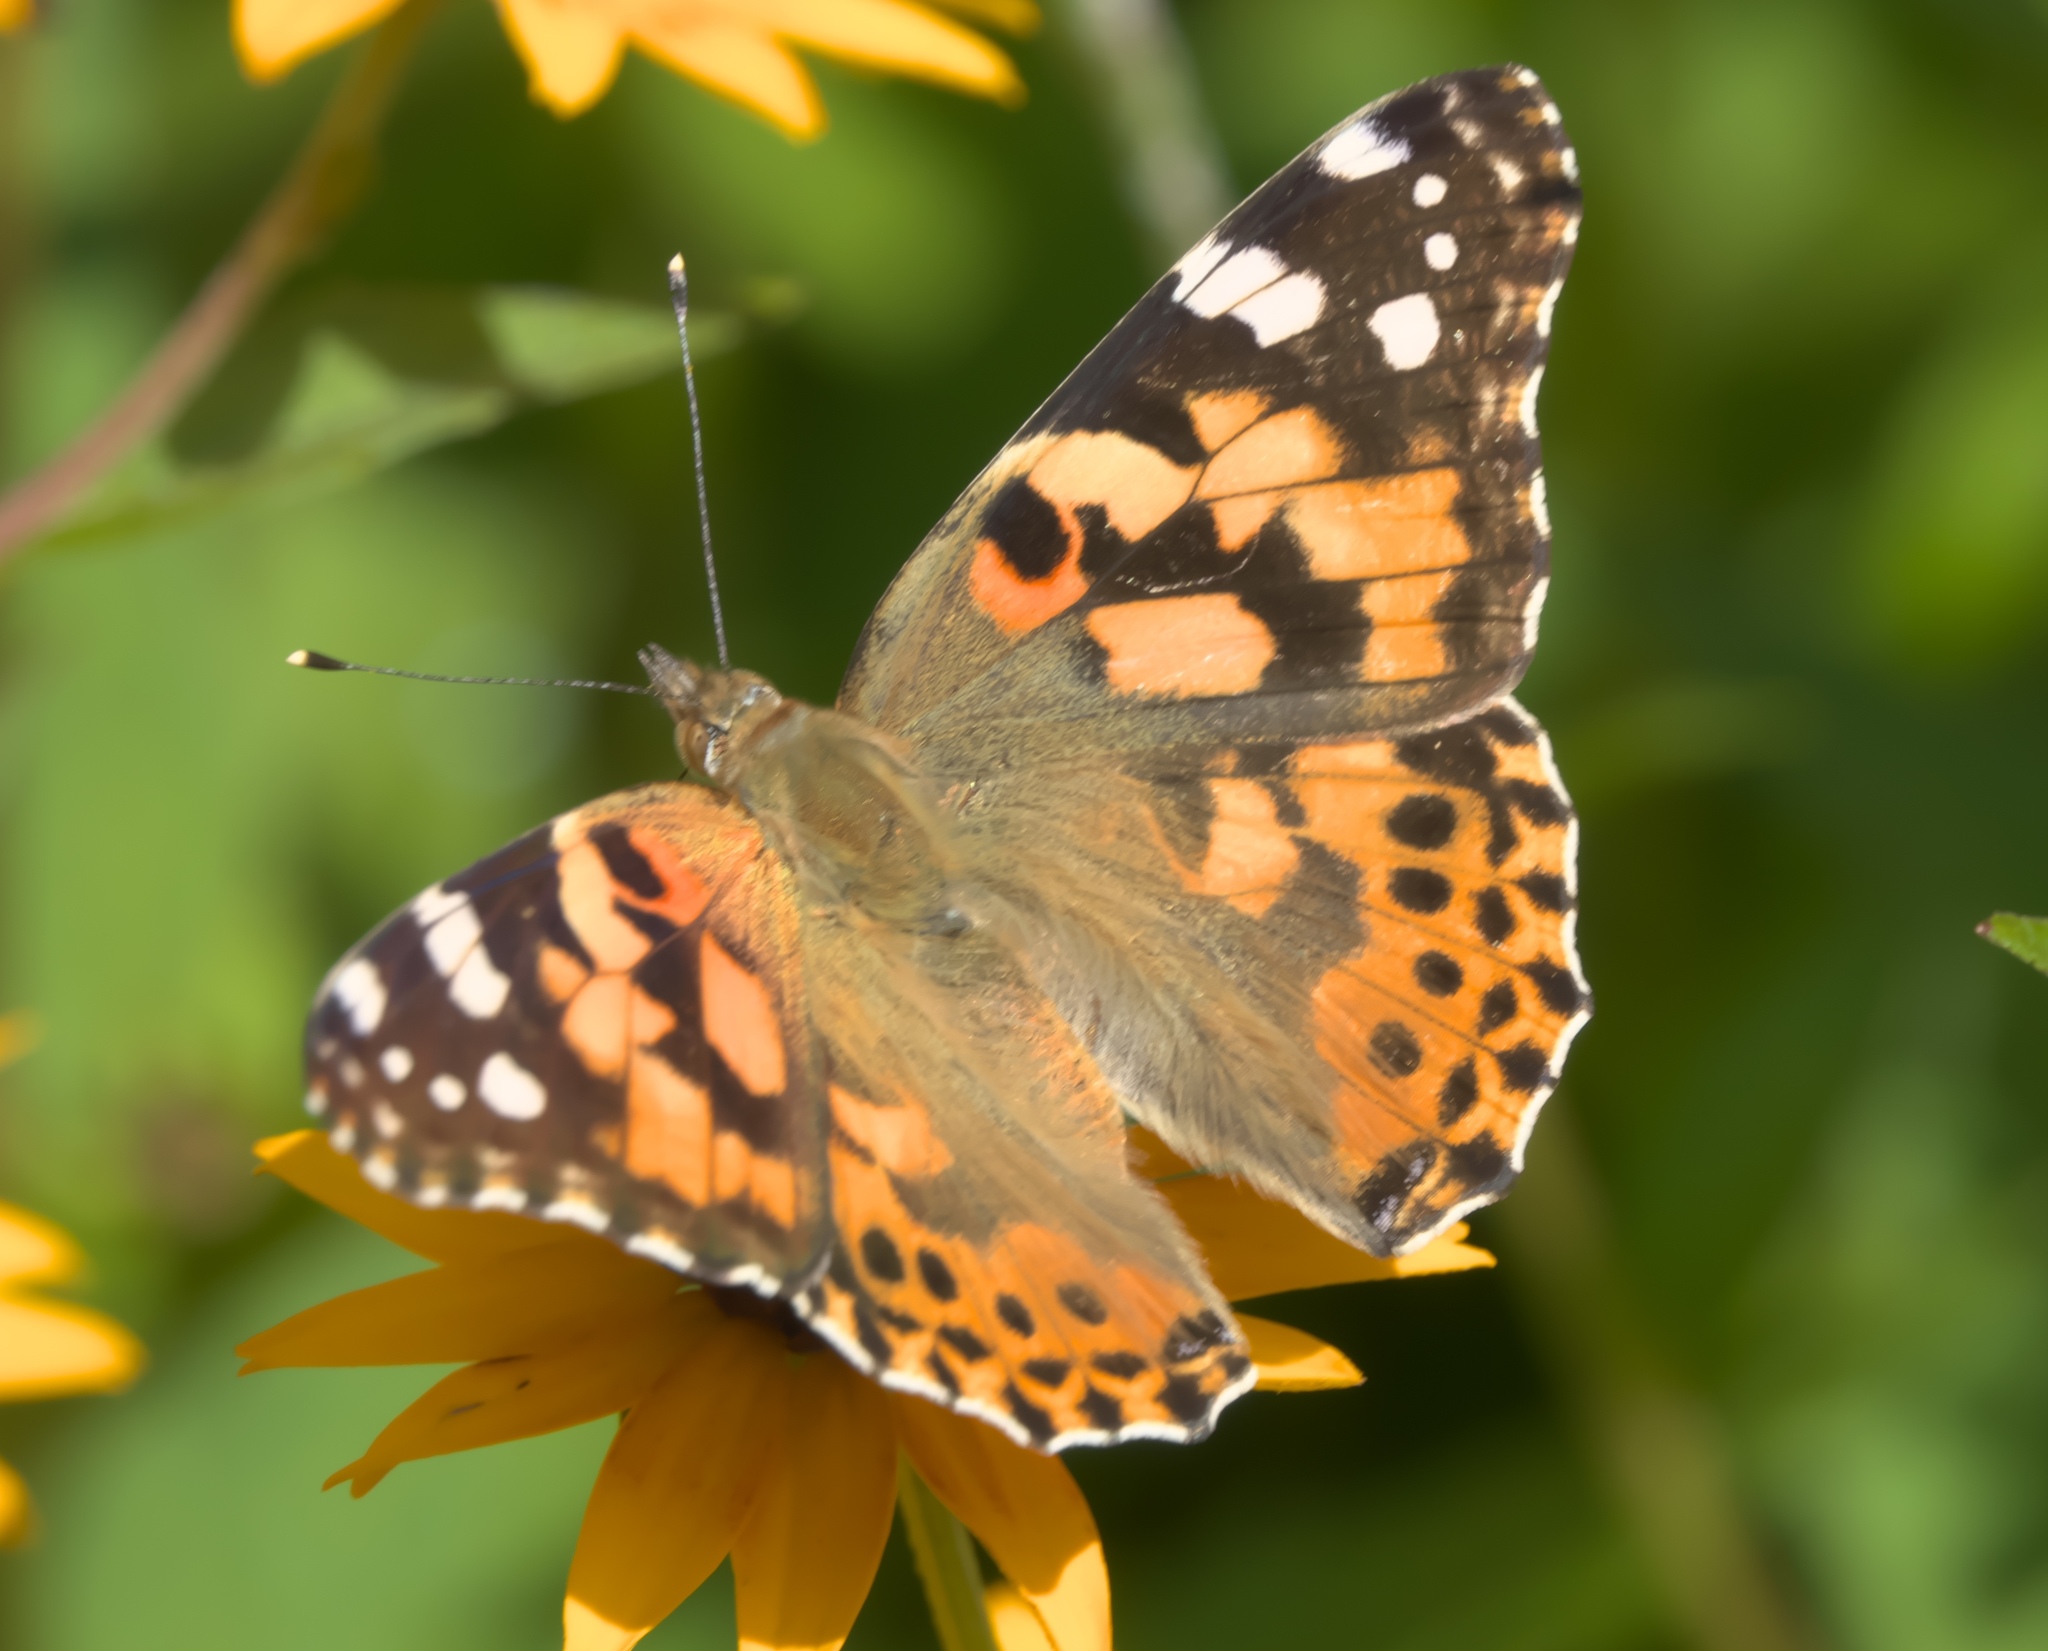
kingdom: Animalia
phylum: Arthropoda
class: Insecta
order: Lepidoptera
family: Nymphalidae
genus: Vanessa
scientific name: Vanessa cardui
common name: Painted lady
